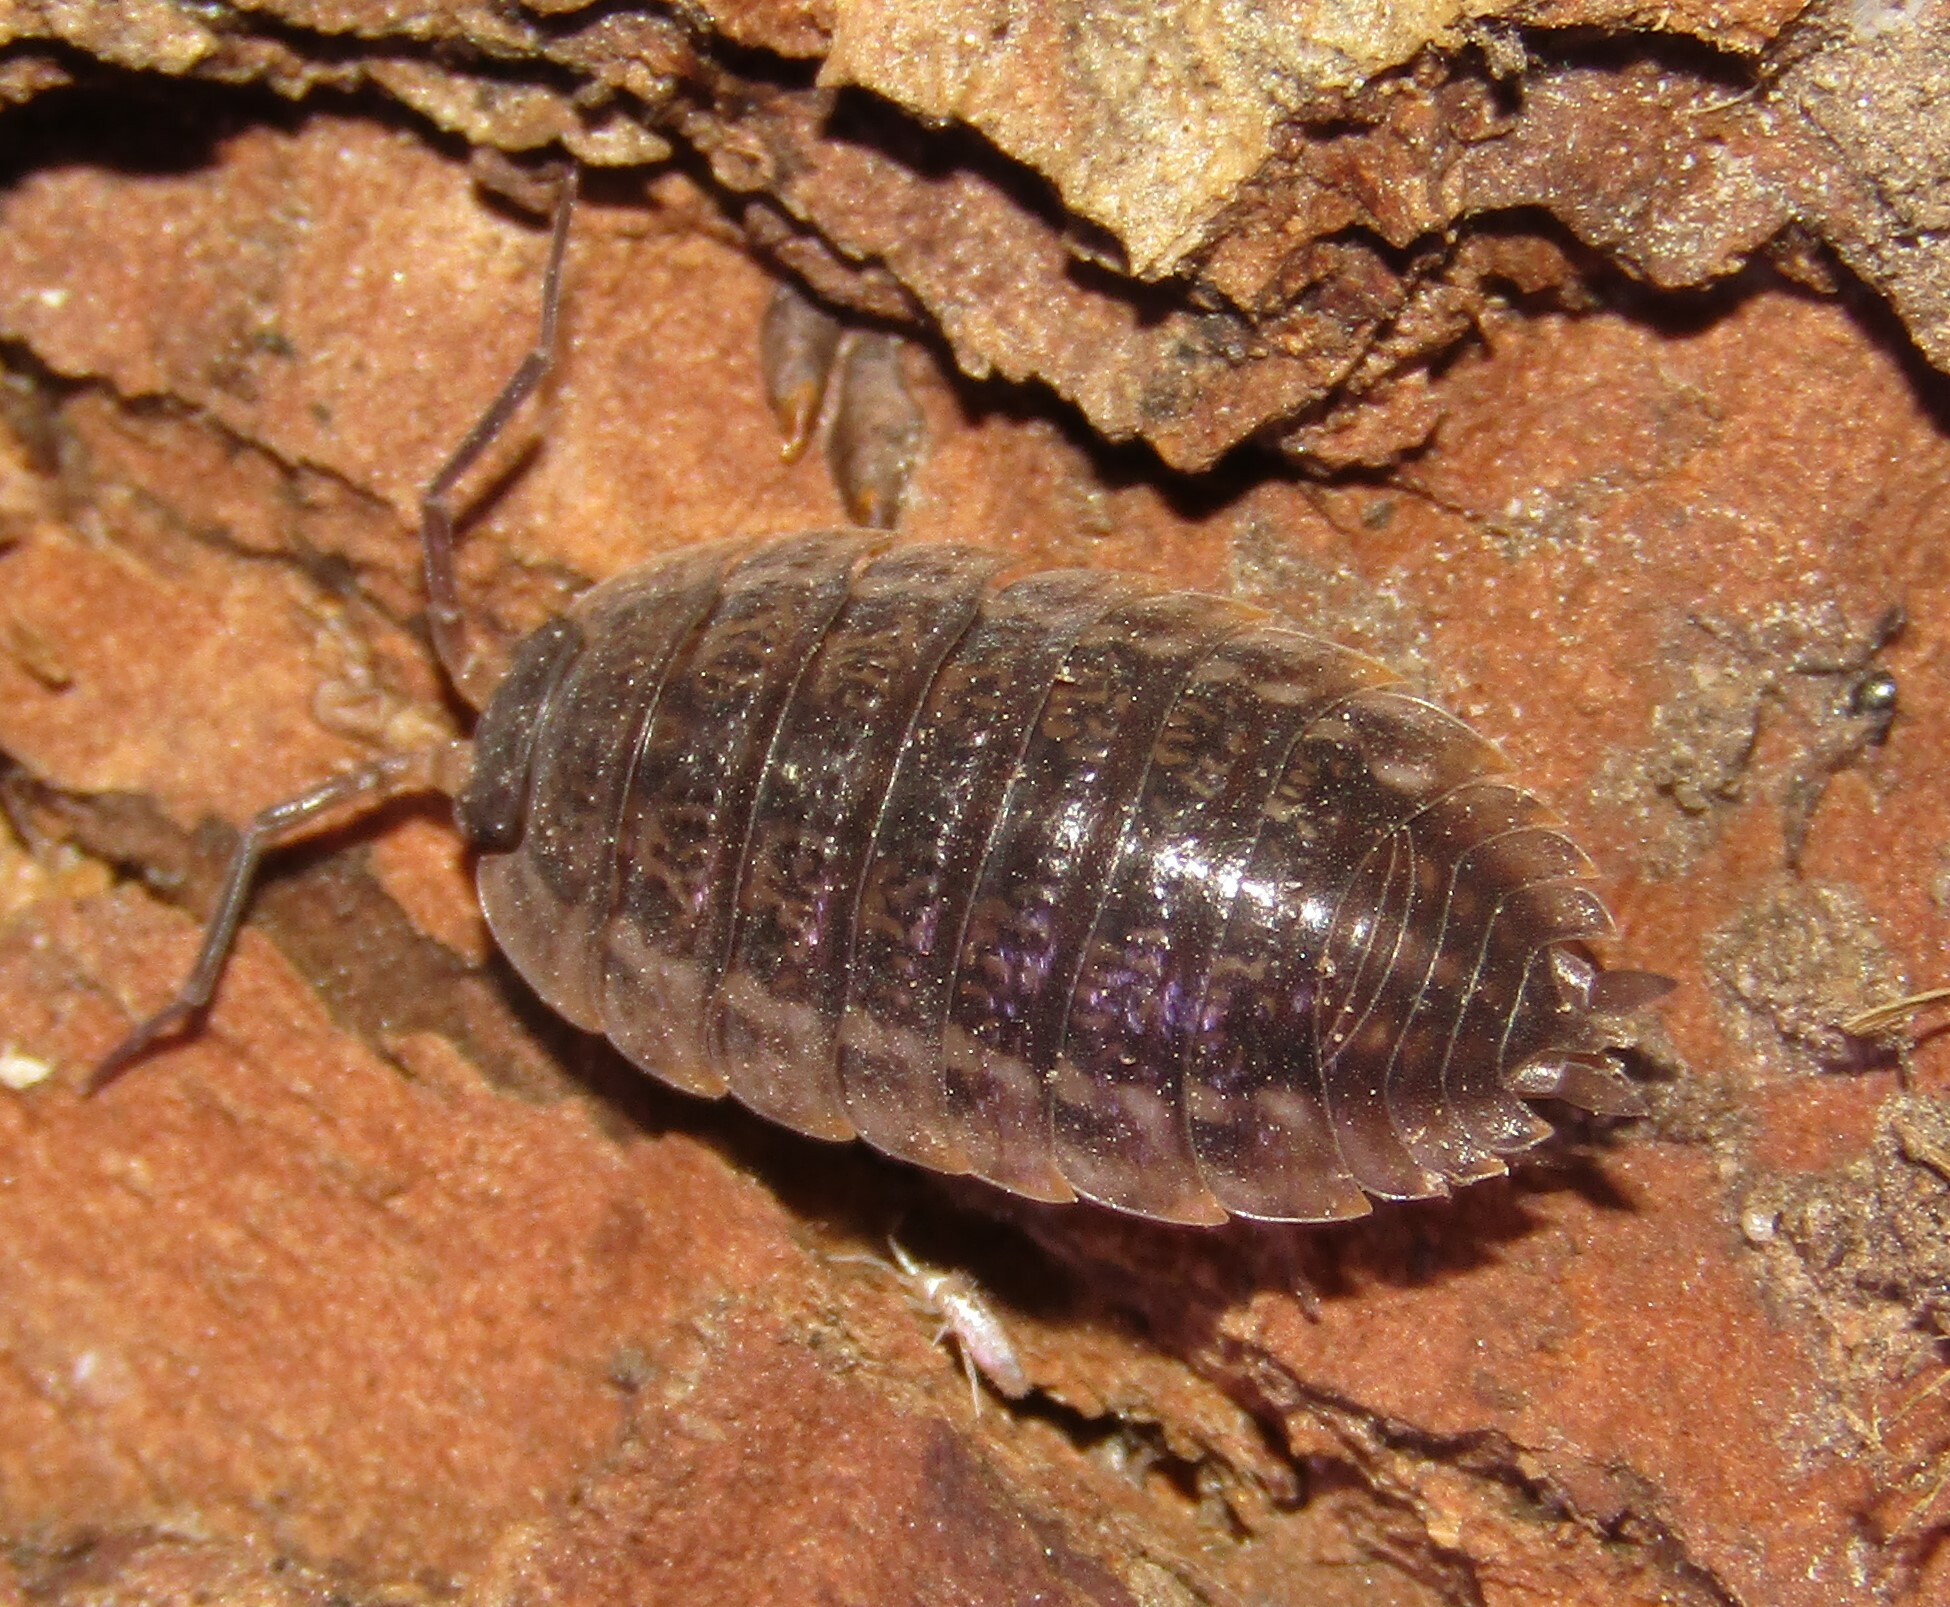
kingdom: Animalia
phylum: Arthropoda
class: Malacostraca
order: Isopoda
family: Trachelipodidae
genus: Trachelipus
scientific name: Trachelipus rathkii
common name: Isopod
